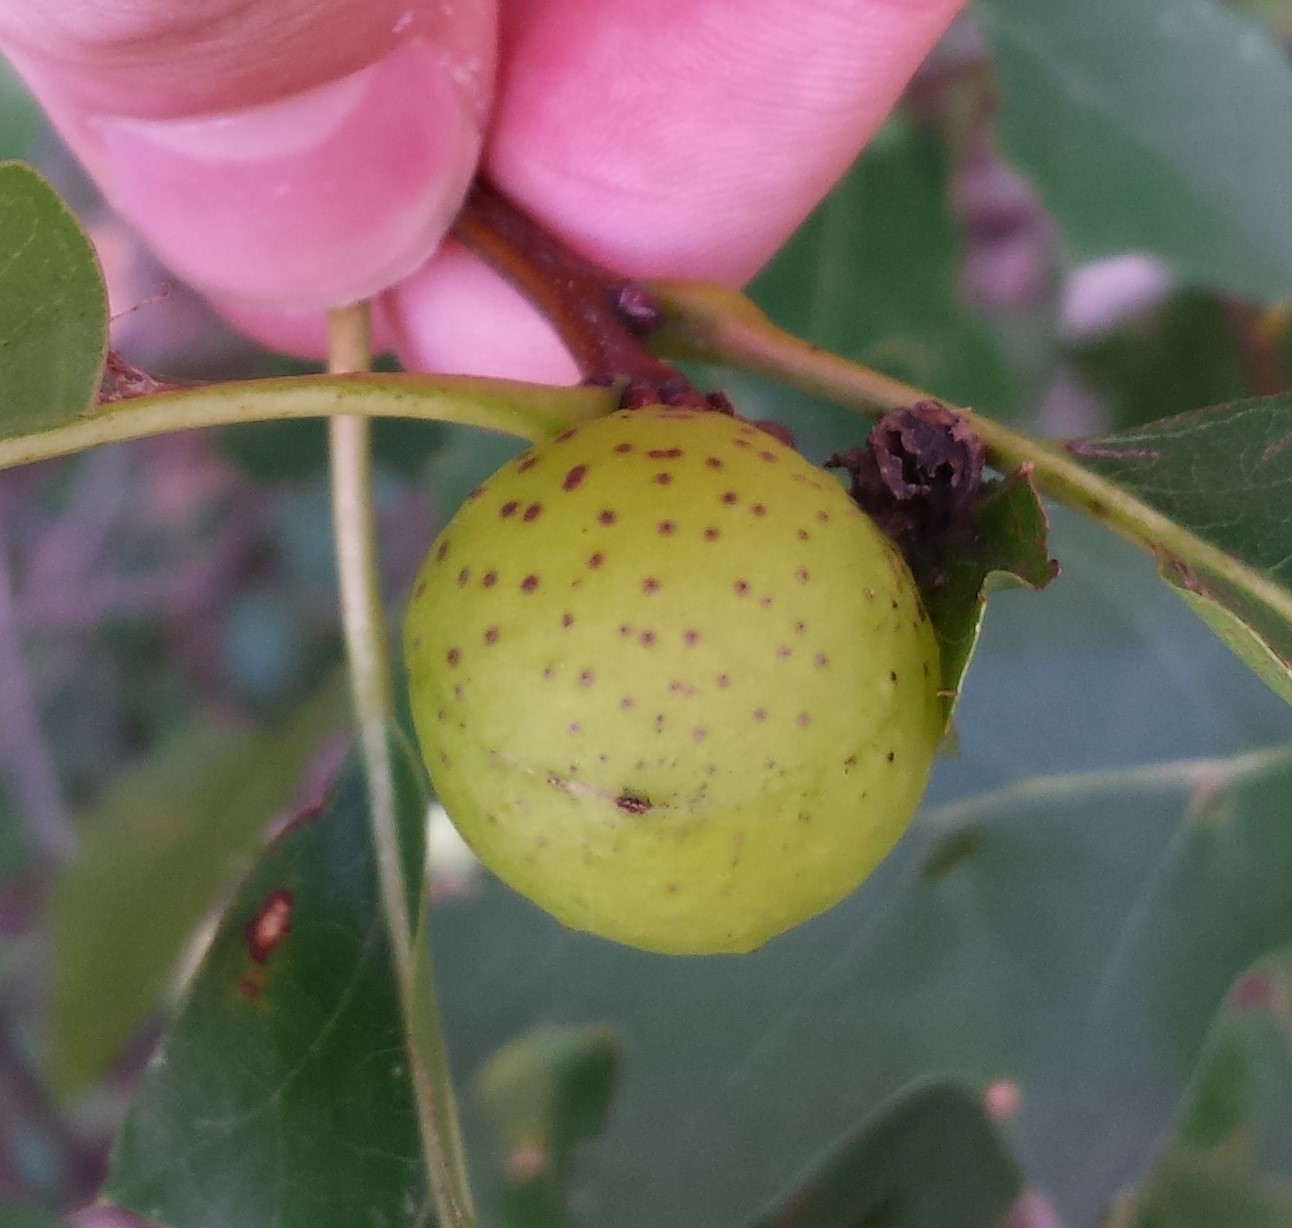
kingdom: Animalia
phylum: Arthropoda
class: Insecta
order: Hymenoptera
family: Cynipidae
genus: Amphibolips
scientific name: Amphibolips
